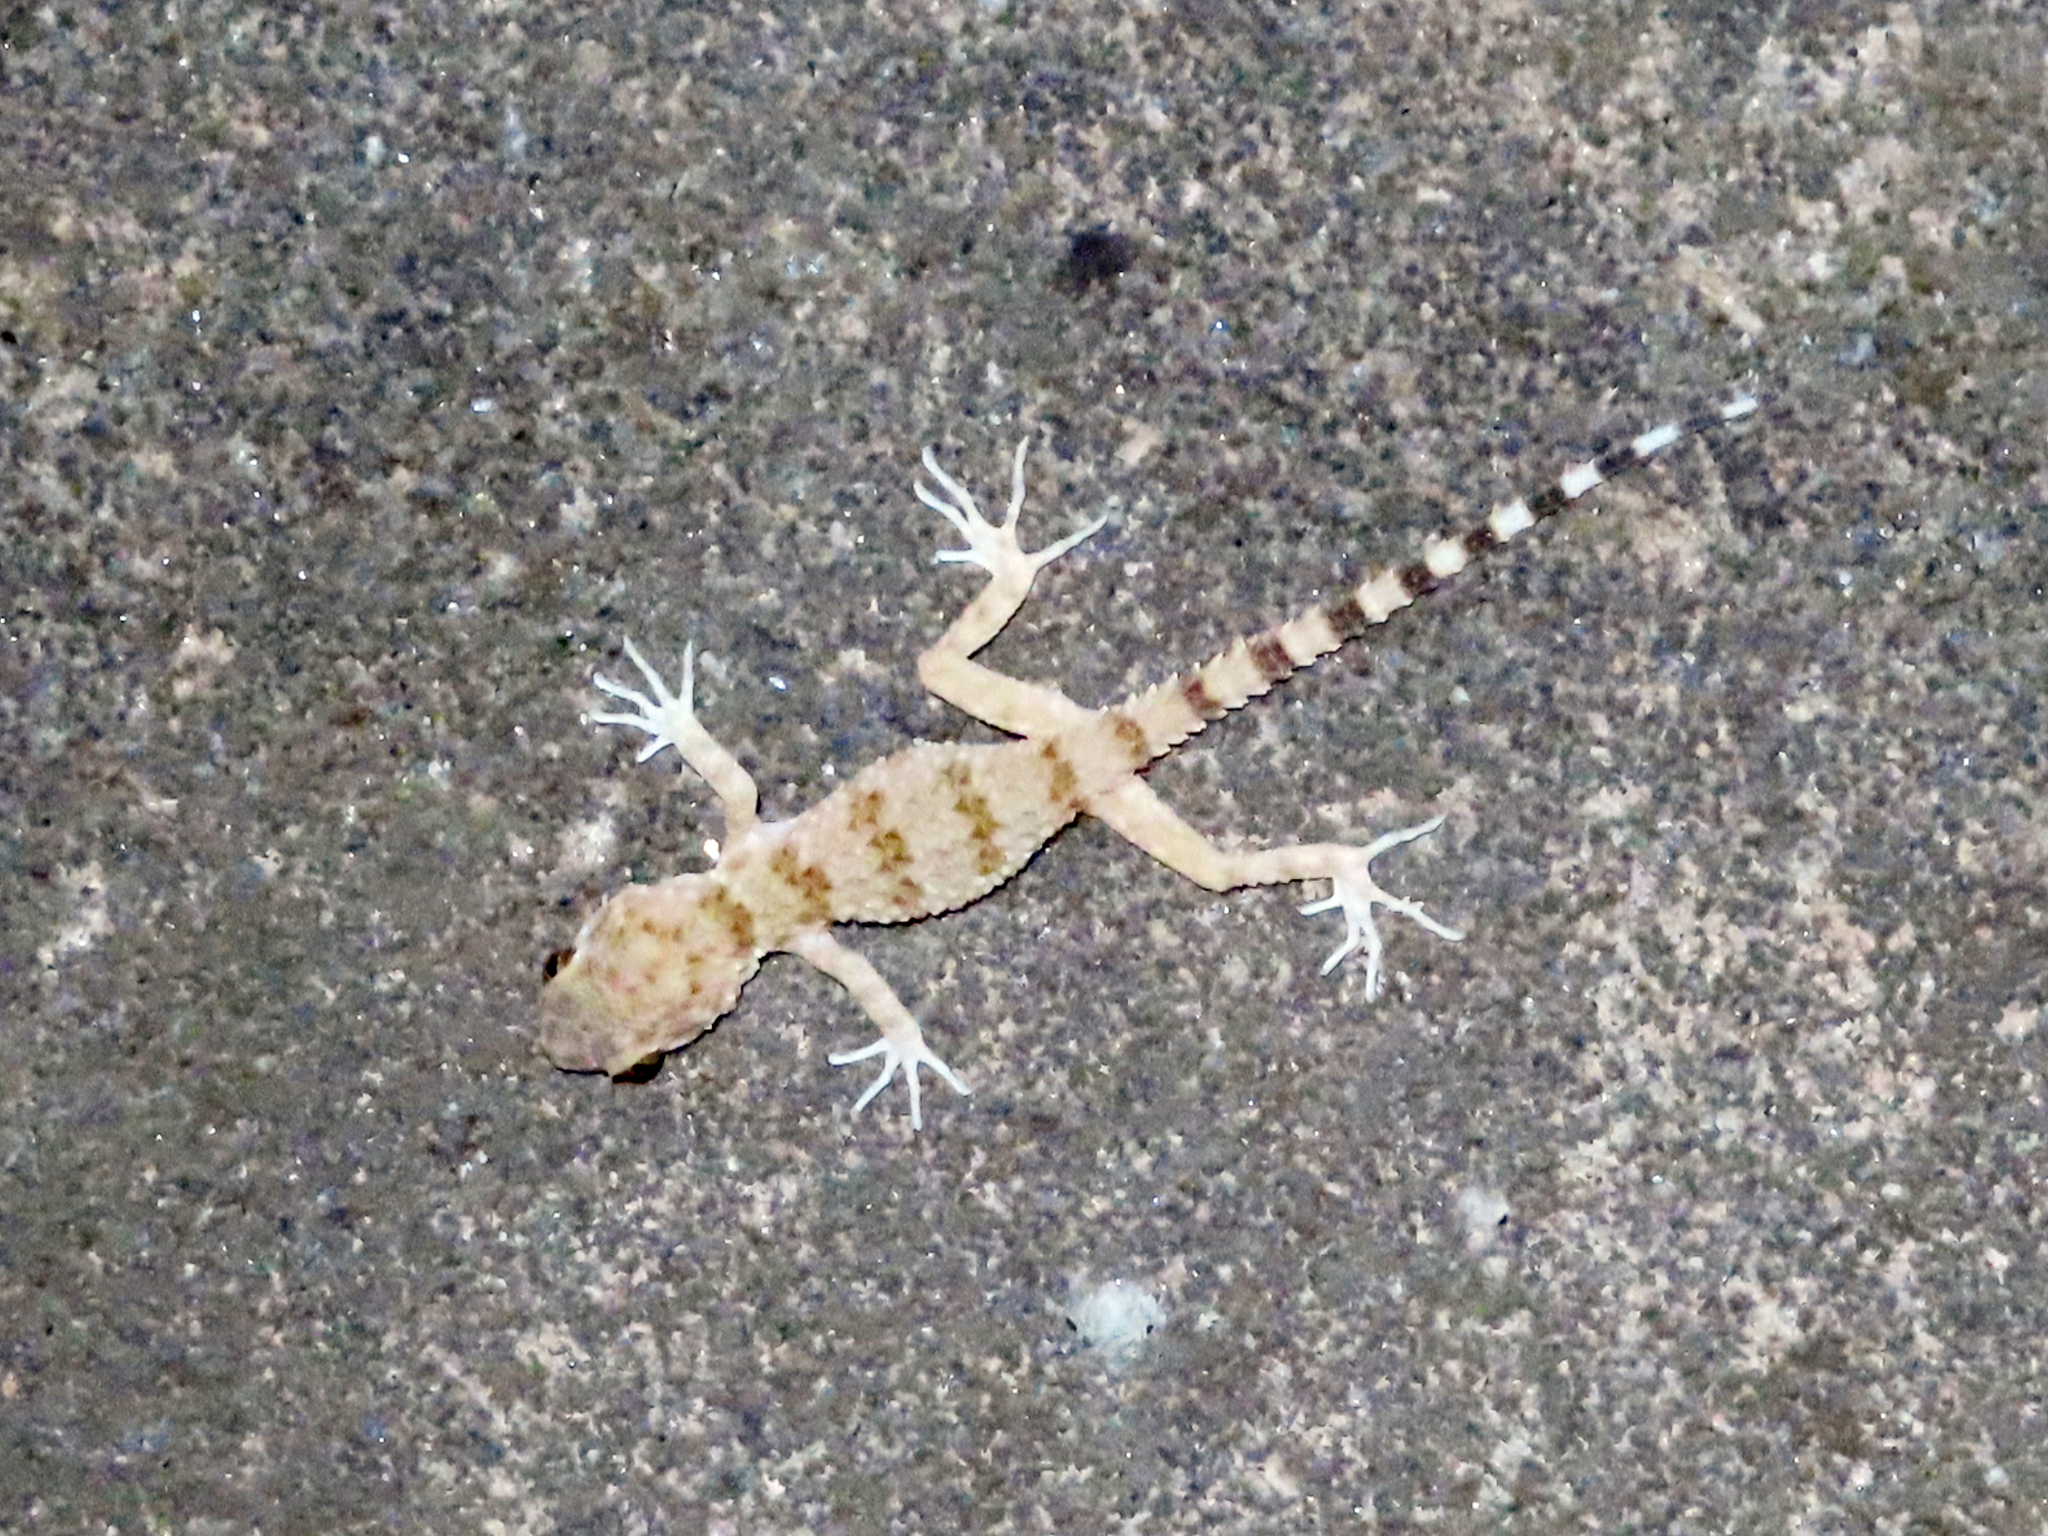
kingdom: Animalia
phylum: Chordata
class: Squamata
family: Gekkonidae
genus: Tenuidactylus
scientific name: Tenuidactylus caspius
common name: Caspian bent-toed gecko
